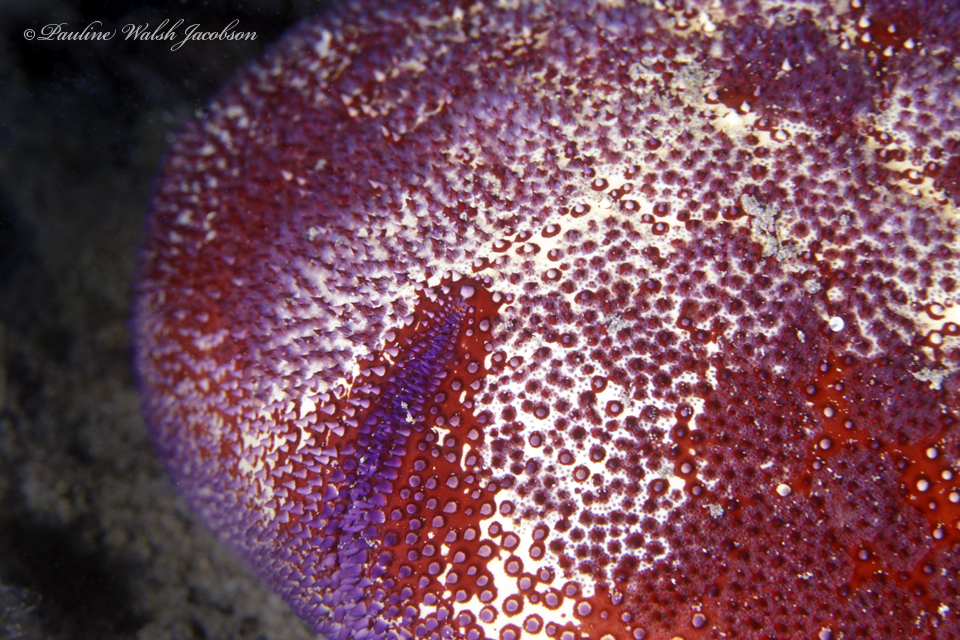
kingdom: Animalia
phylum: Echinodermata
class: Asteroidea
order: Valvatida
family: Oreasteridae
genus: Culcita
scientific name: Culcita novaeguineae
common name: Cushion star
